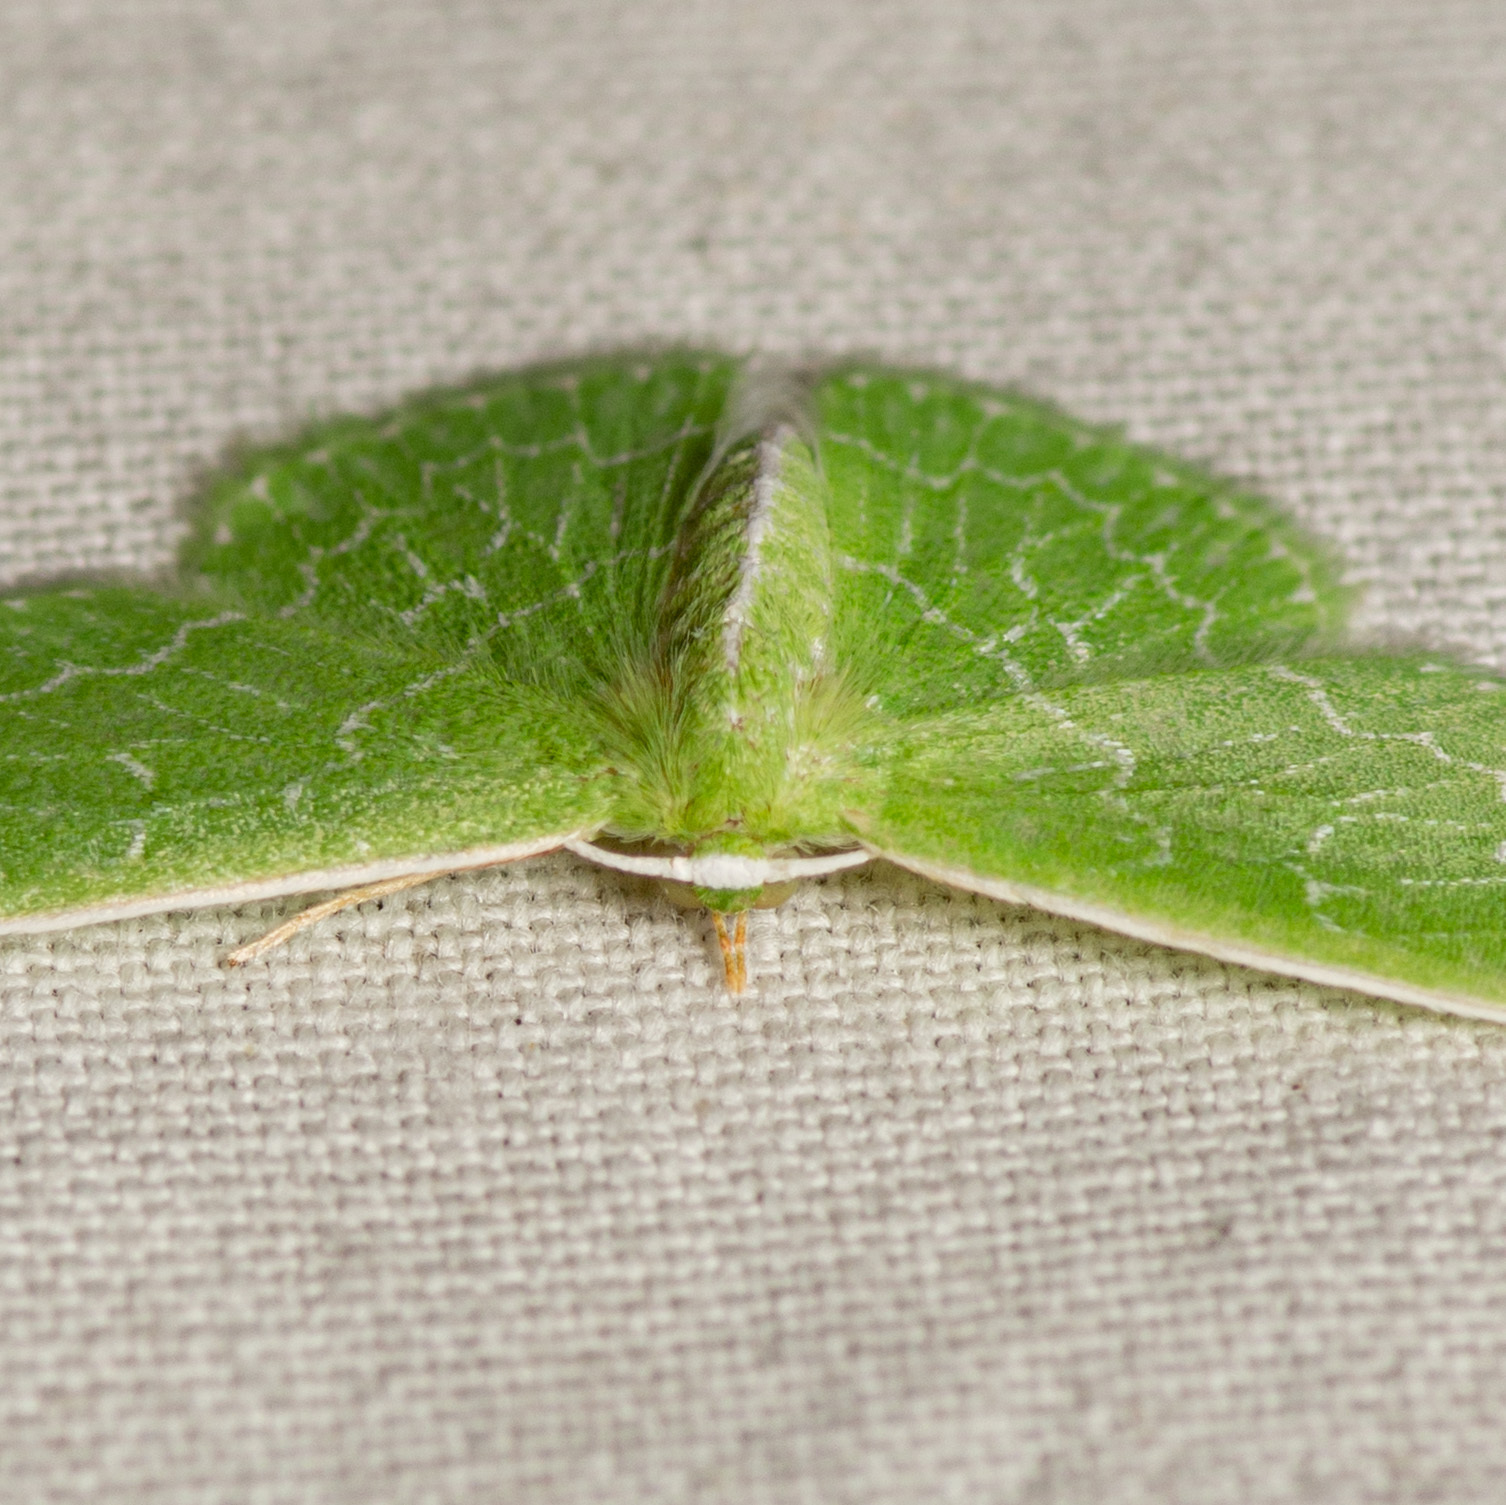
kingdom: Animalia
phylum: Arthropoda
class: Insecta
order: Lepidoptera
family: Geometridae
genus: Synchlora
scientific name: Synchlora frondaria
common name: Southern emerald
